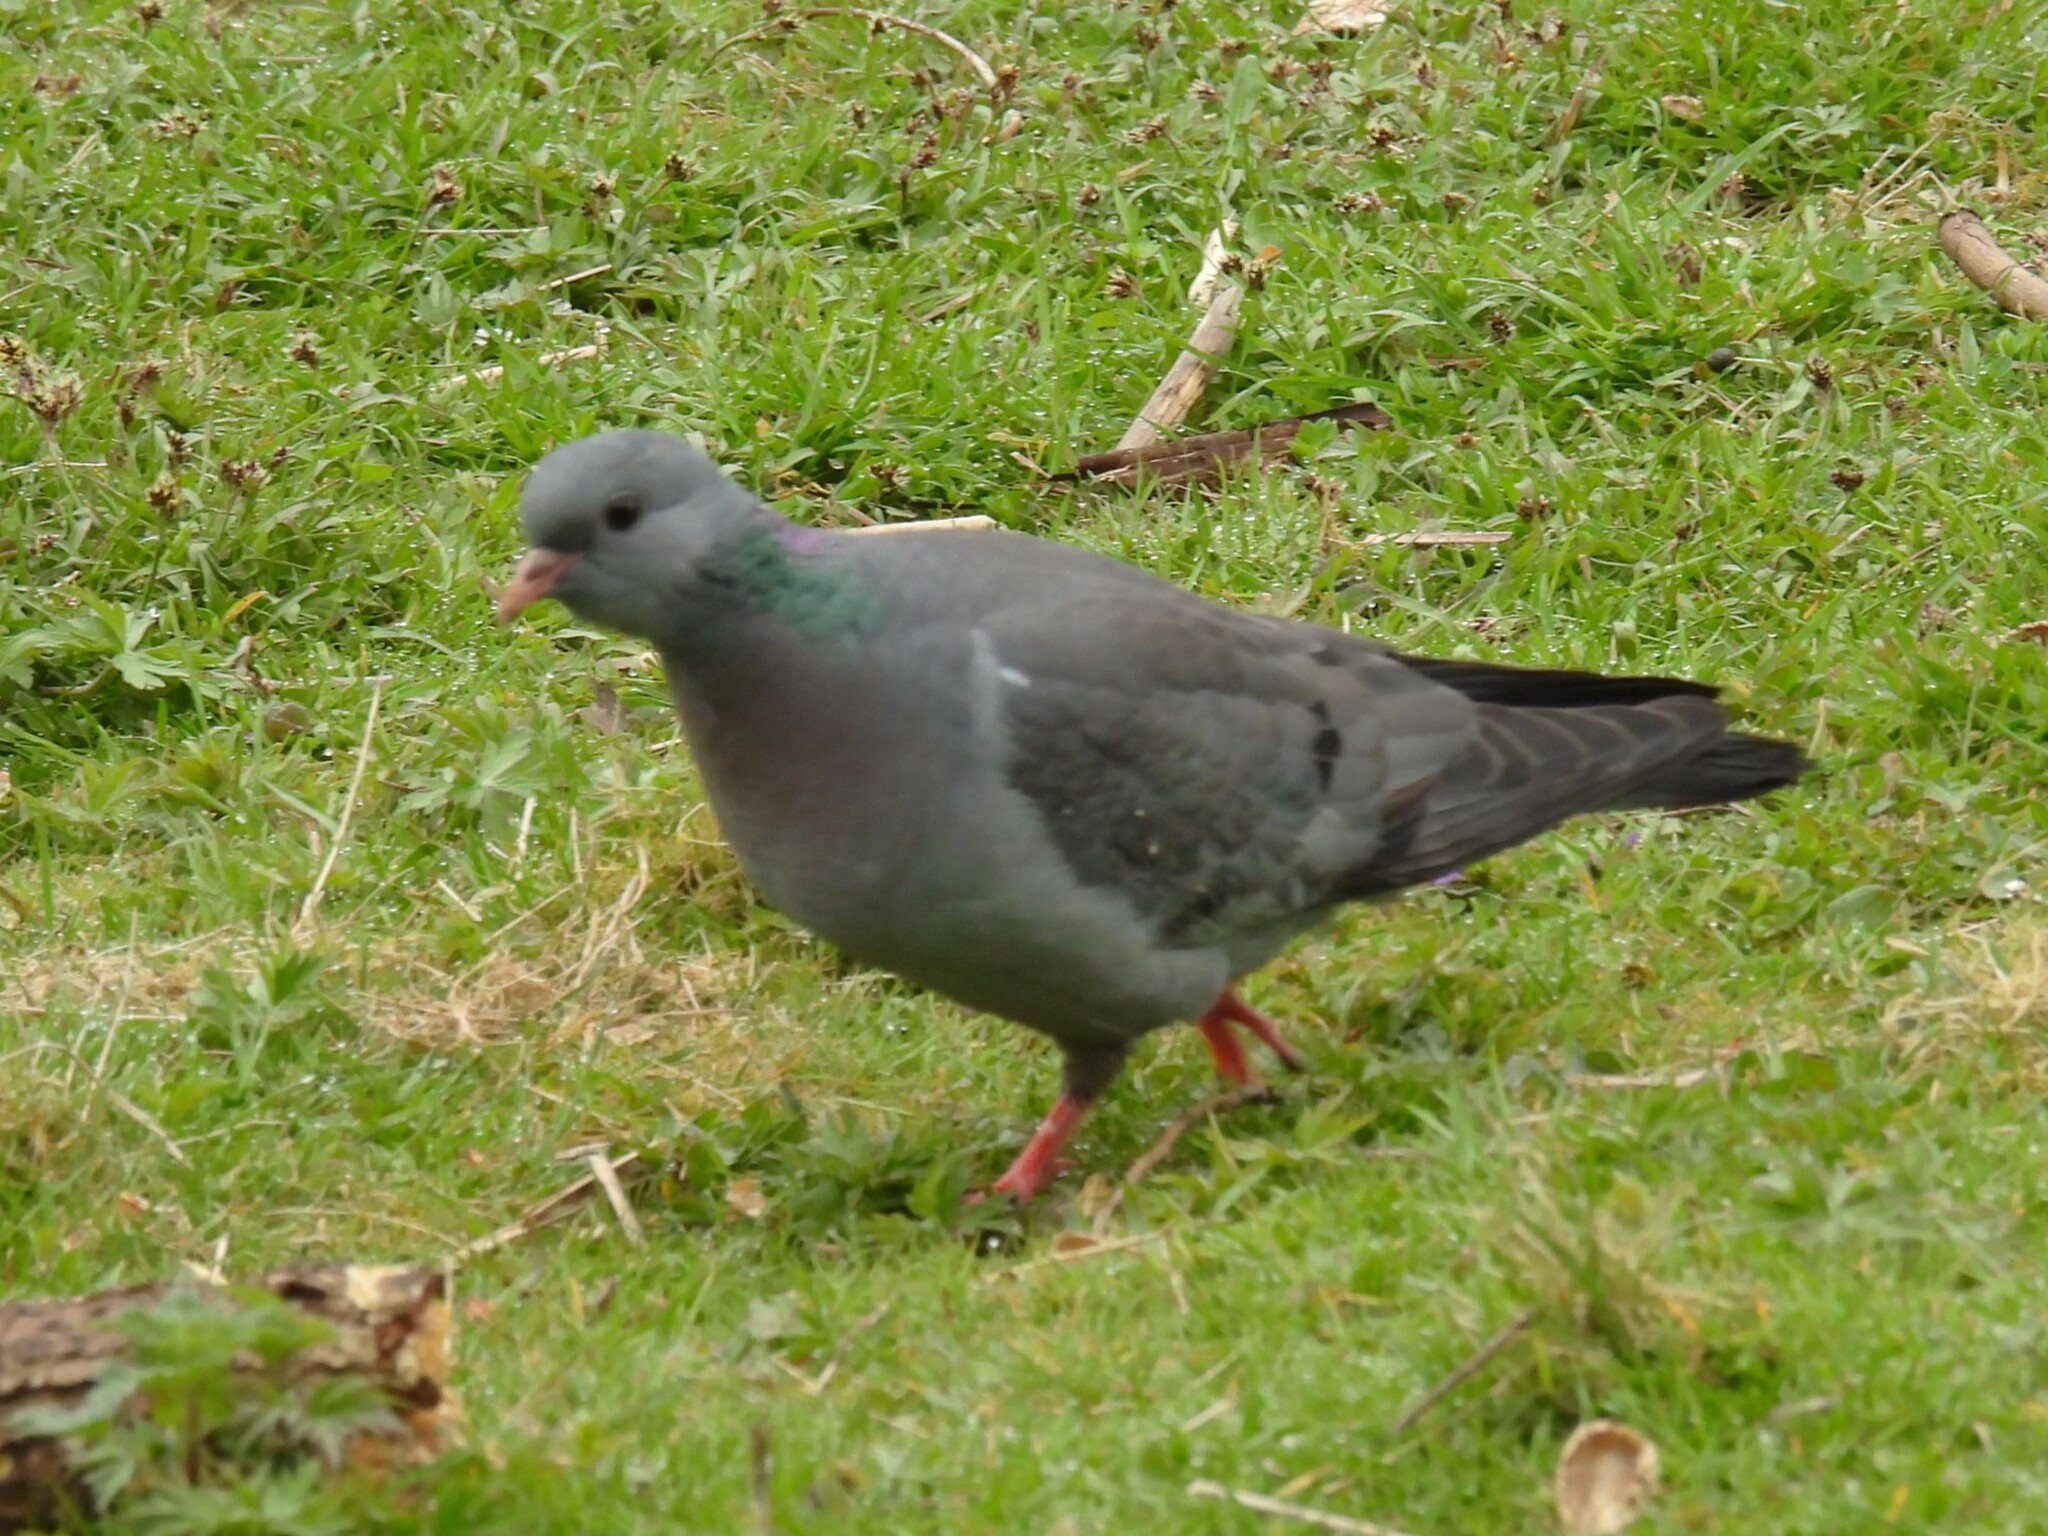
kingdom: Animalia
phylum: Chordata
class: Aves
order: Columbiformes
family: Columbidae
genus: Columba
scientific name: Columba oenas
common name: Stock dove
